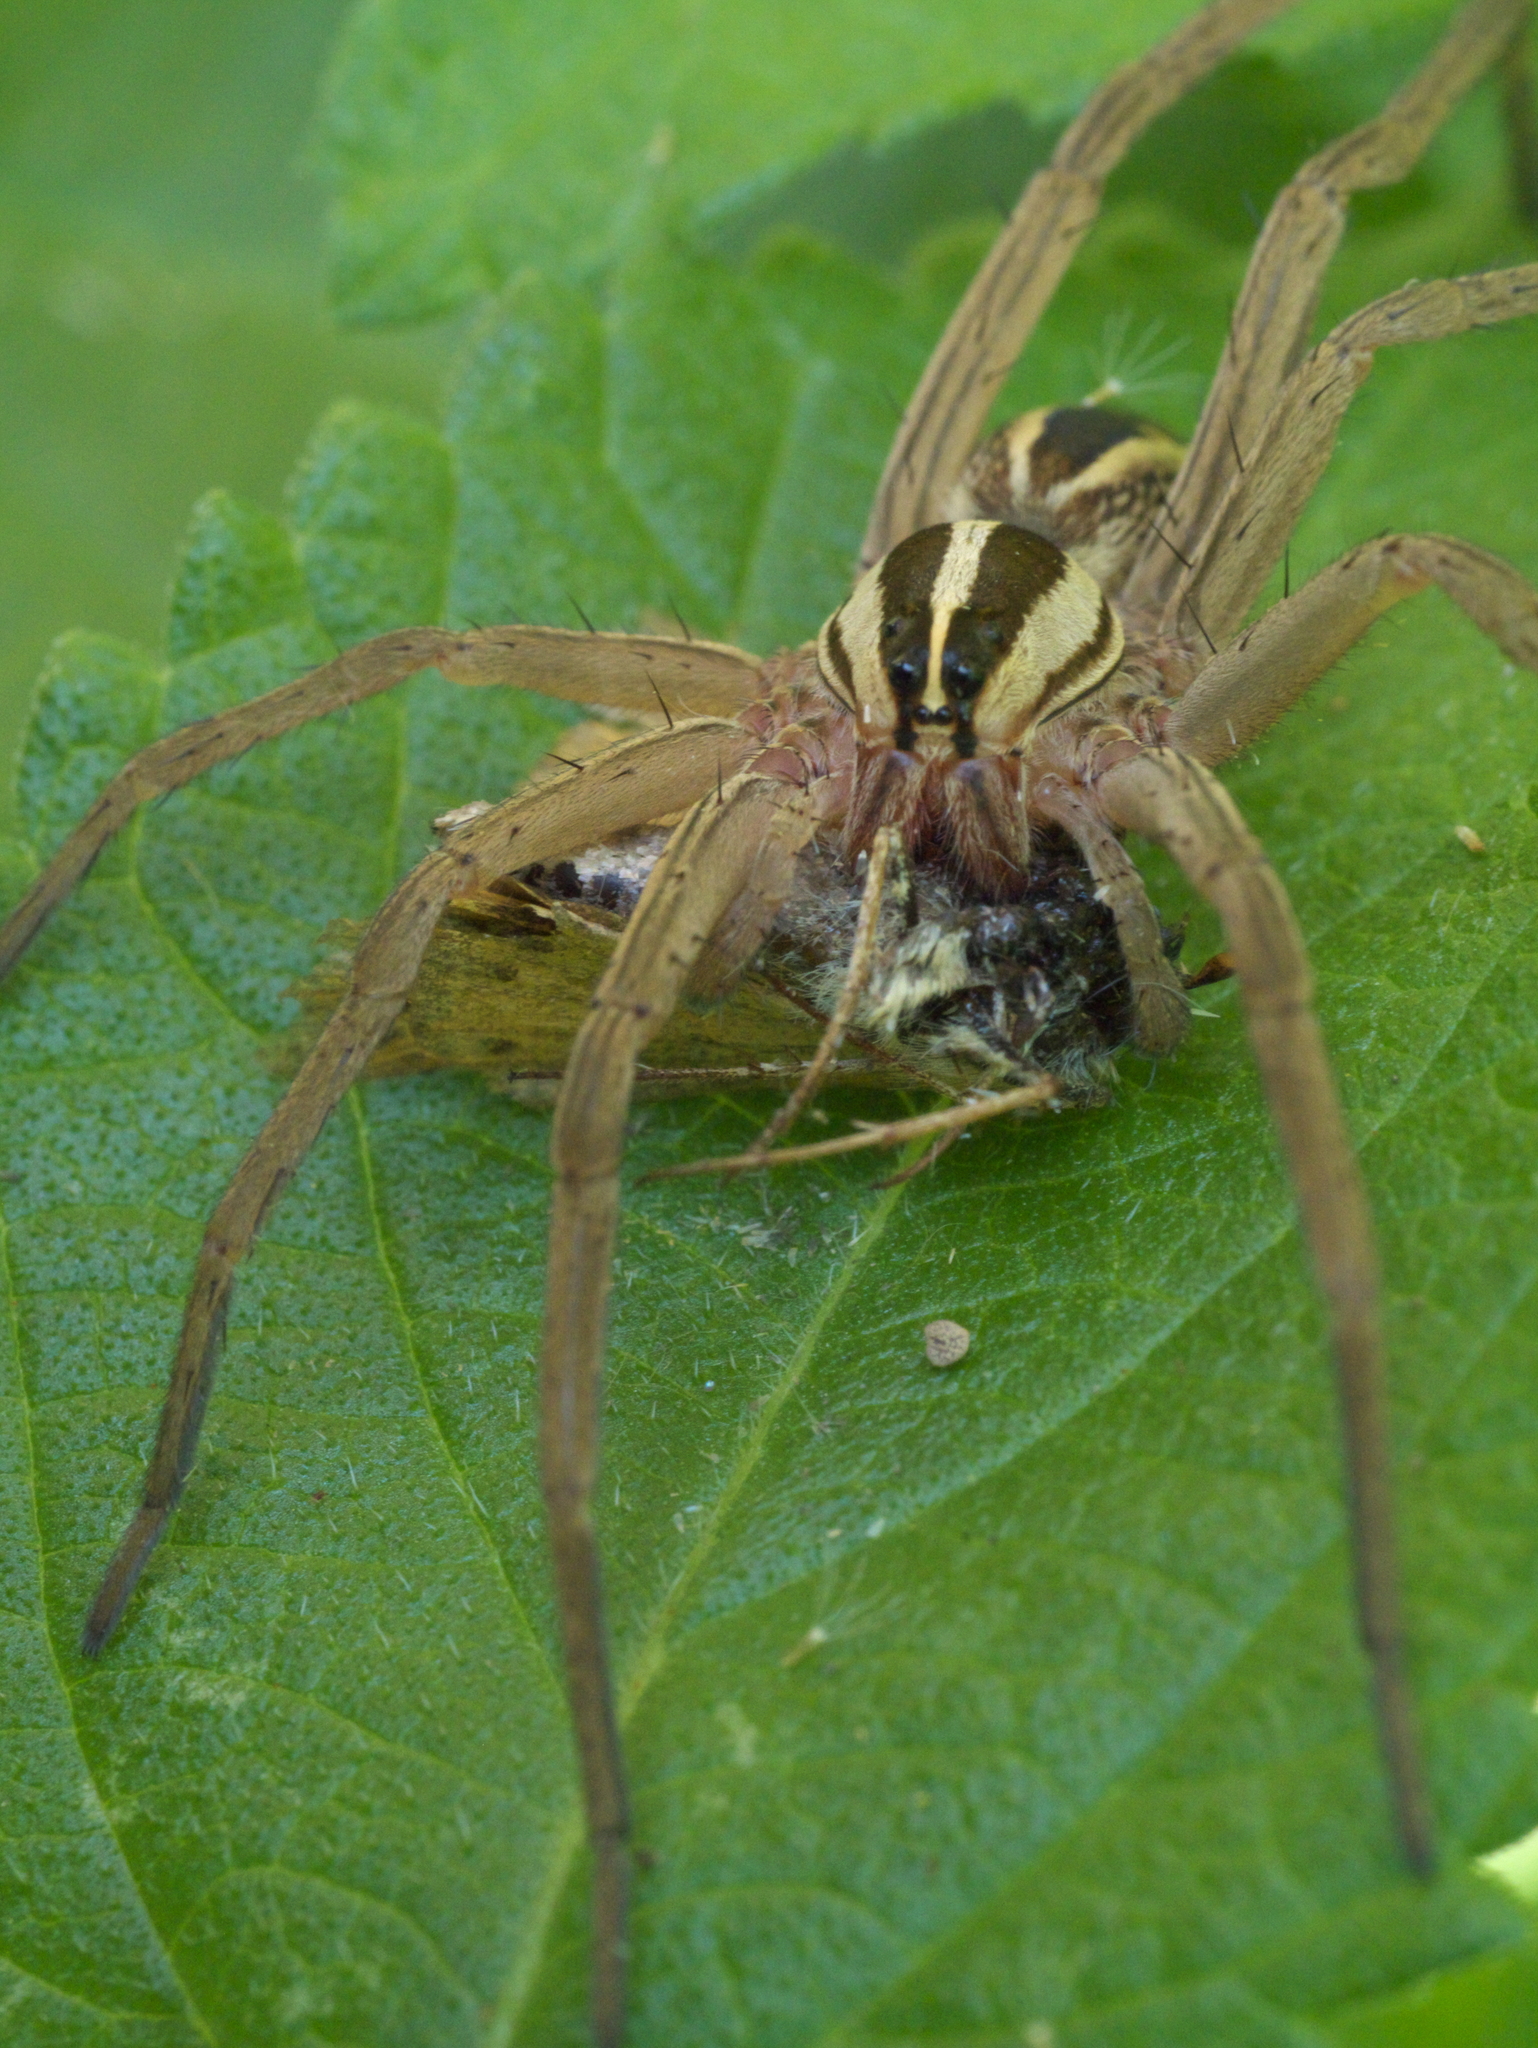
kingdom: Animalia
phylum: Arthropoda
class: Arachnida
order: Araneae
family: Lycosidae
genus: Rabidosa
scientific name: Rabidosa rabida
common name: Rabid wolf spider
